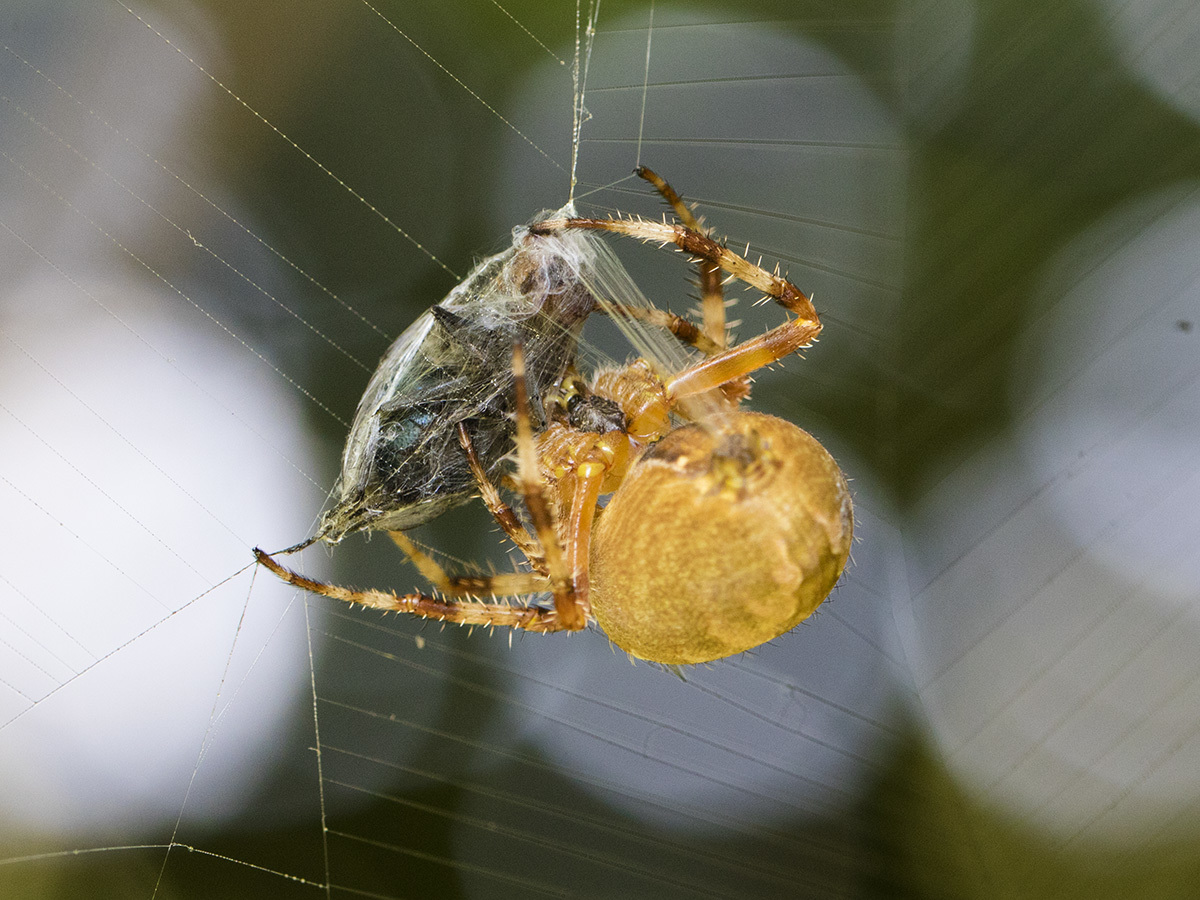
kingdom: Animalia
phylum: Arthropoda
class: Arachnida
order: Araneae
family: Araneidae
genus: Araneus
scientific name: Araneus diadematus
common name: Cross orbweaver
